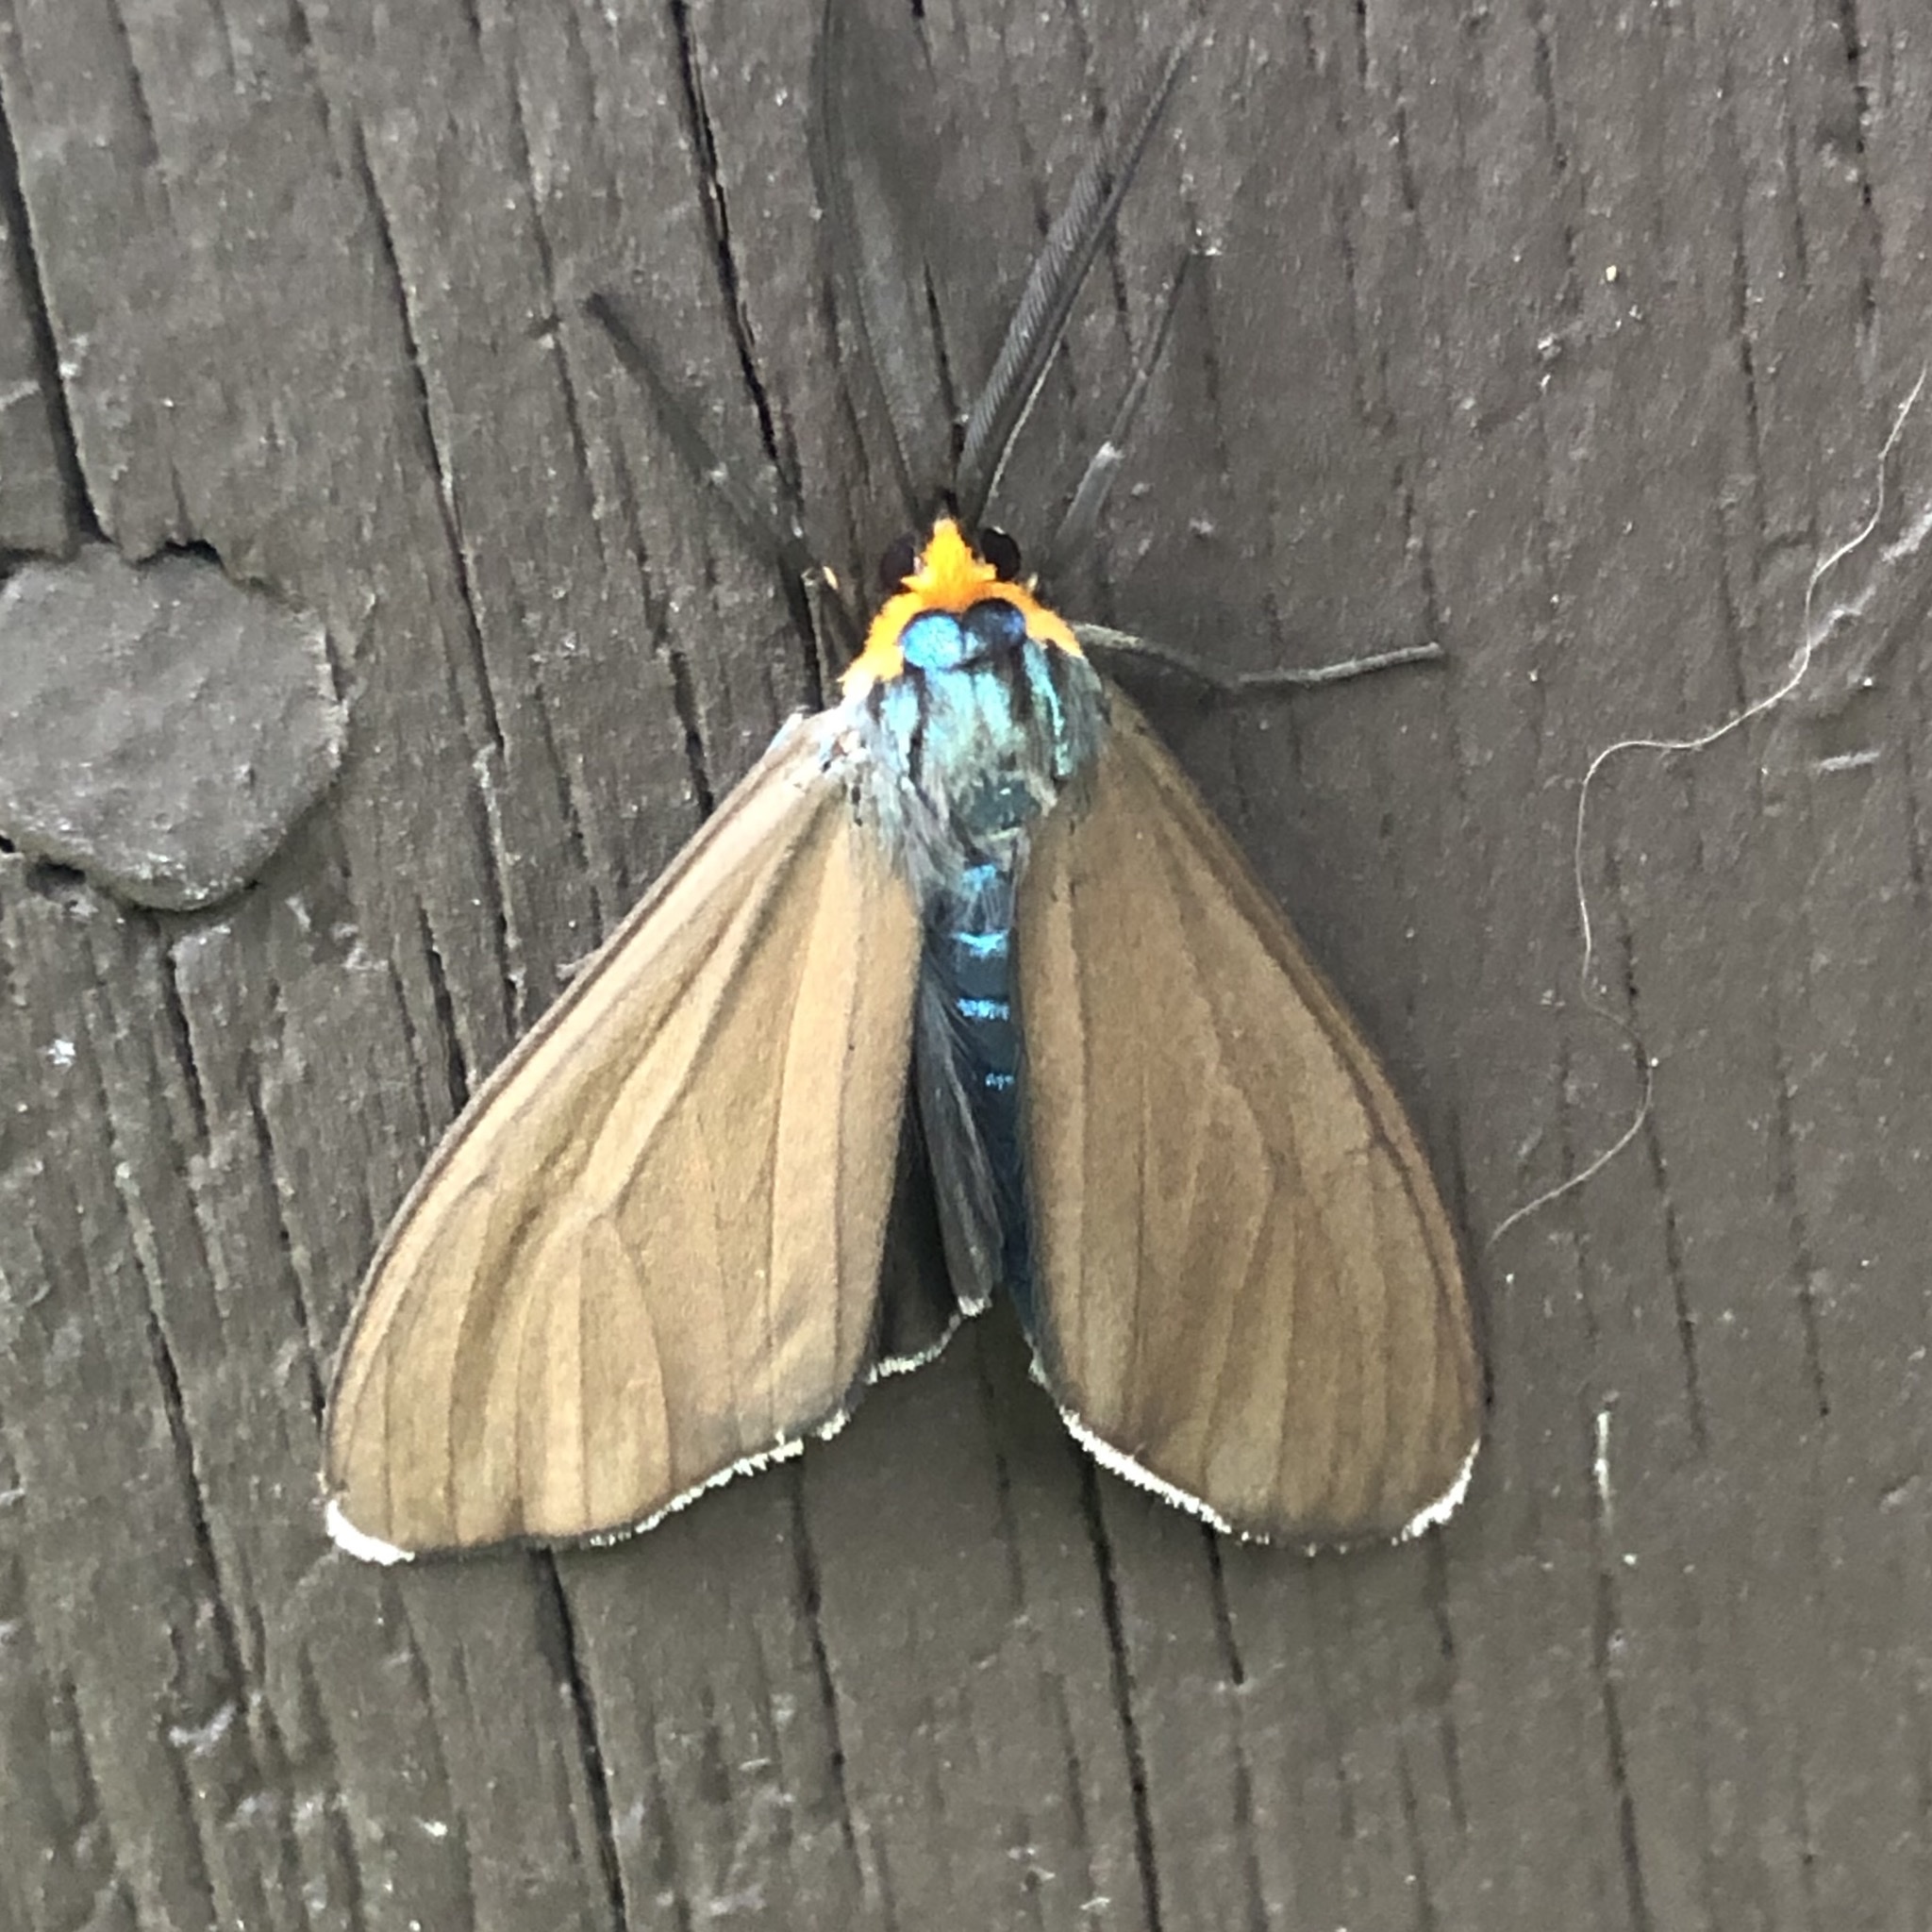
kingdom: Animalia
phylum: Arthropoda
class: Insecta
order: Lepidoptera
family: Erebidae
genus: Ctenucha
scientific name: Ctenucha virginica
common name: Virginia ctenucha moth
